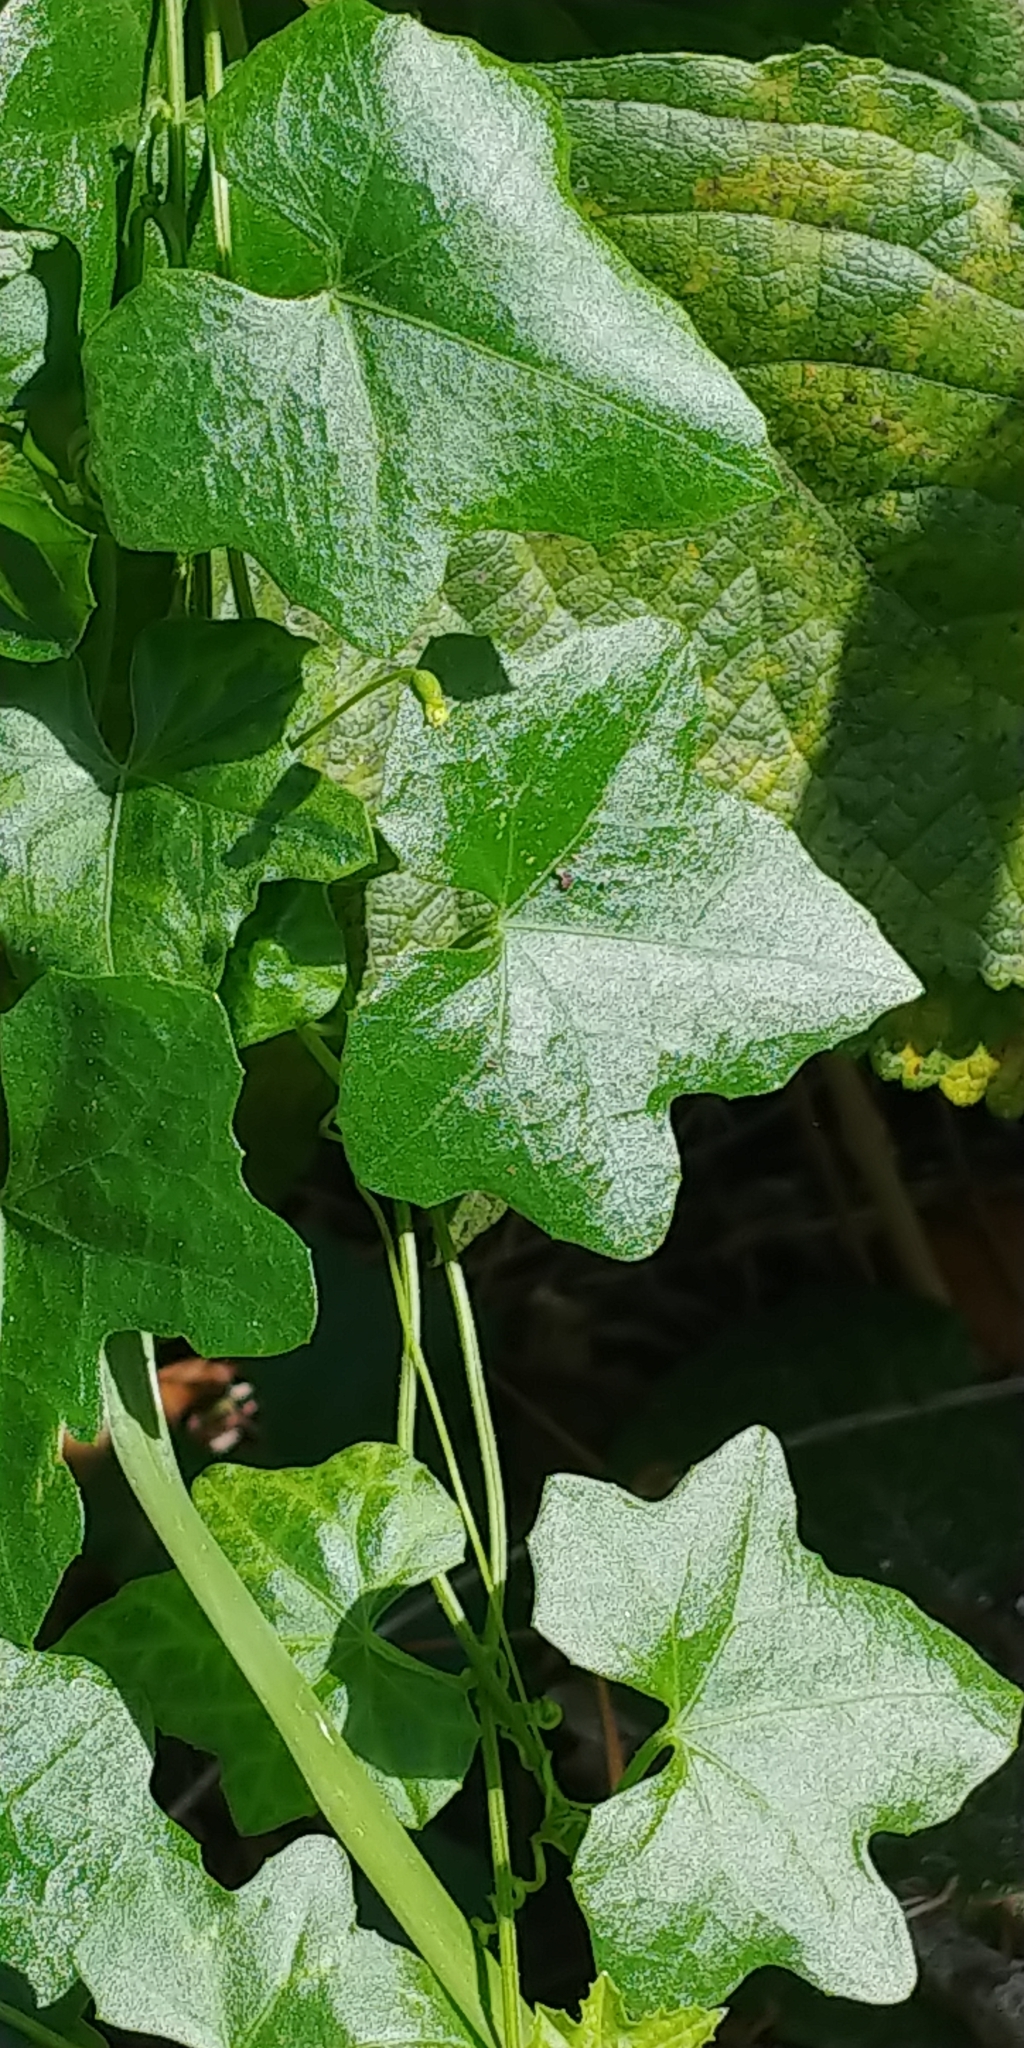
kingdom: Plantae
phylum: Tracheophyta
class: Magnoliopsida
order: Cucurbitales
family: Cucurbitaceae
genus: Melothria
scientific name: Melothria pendula
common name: Creeping-cucumber
